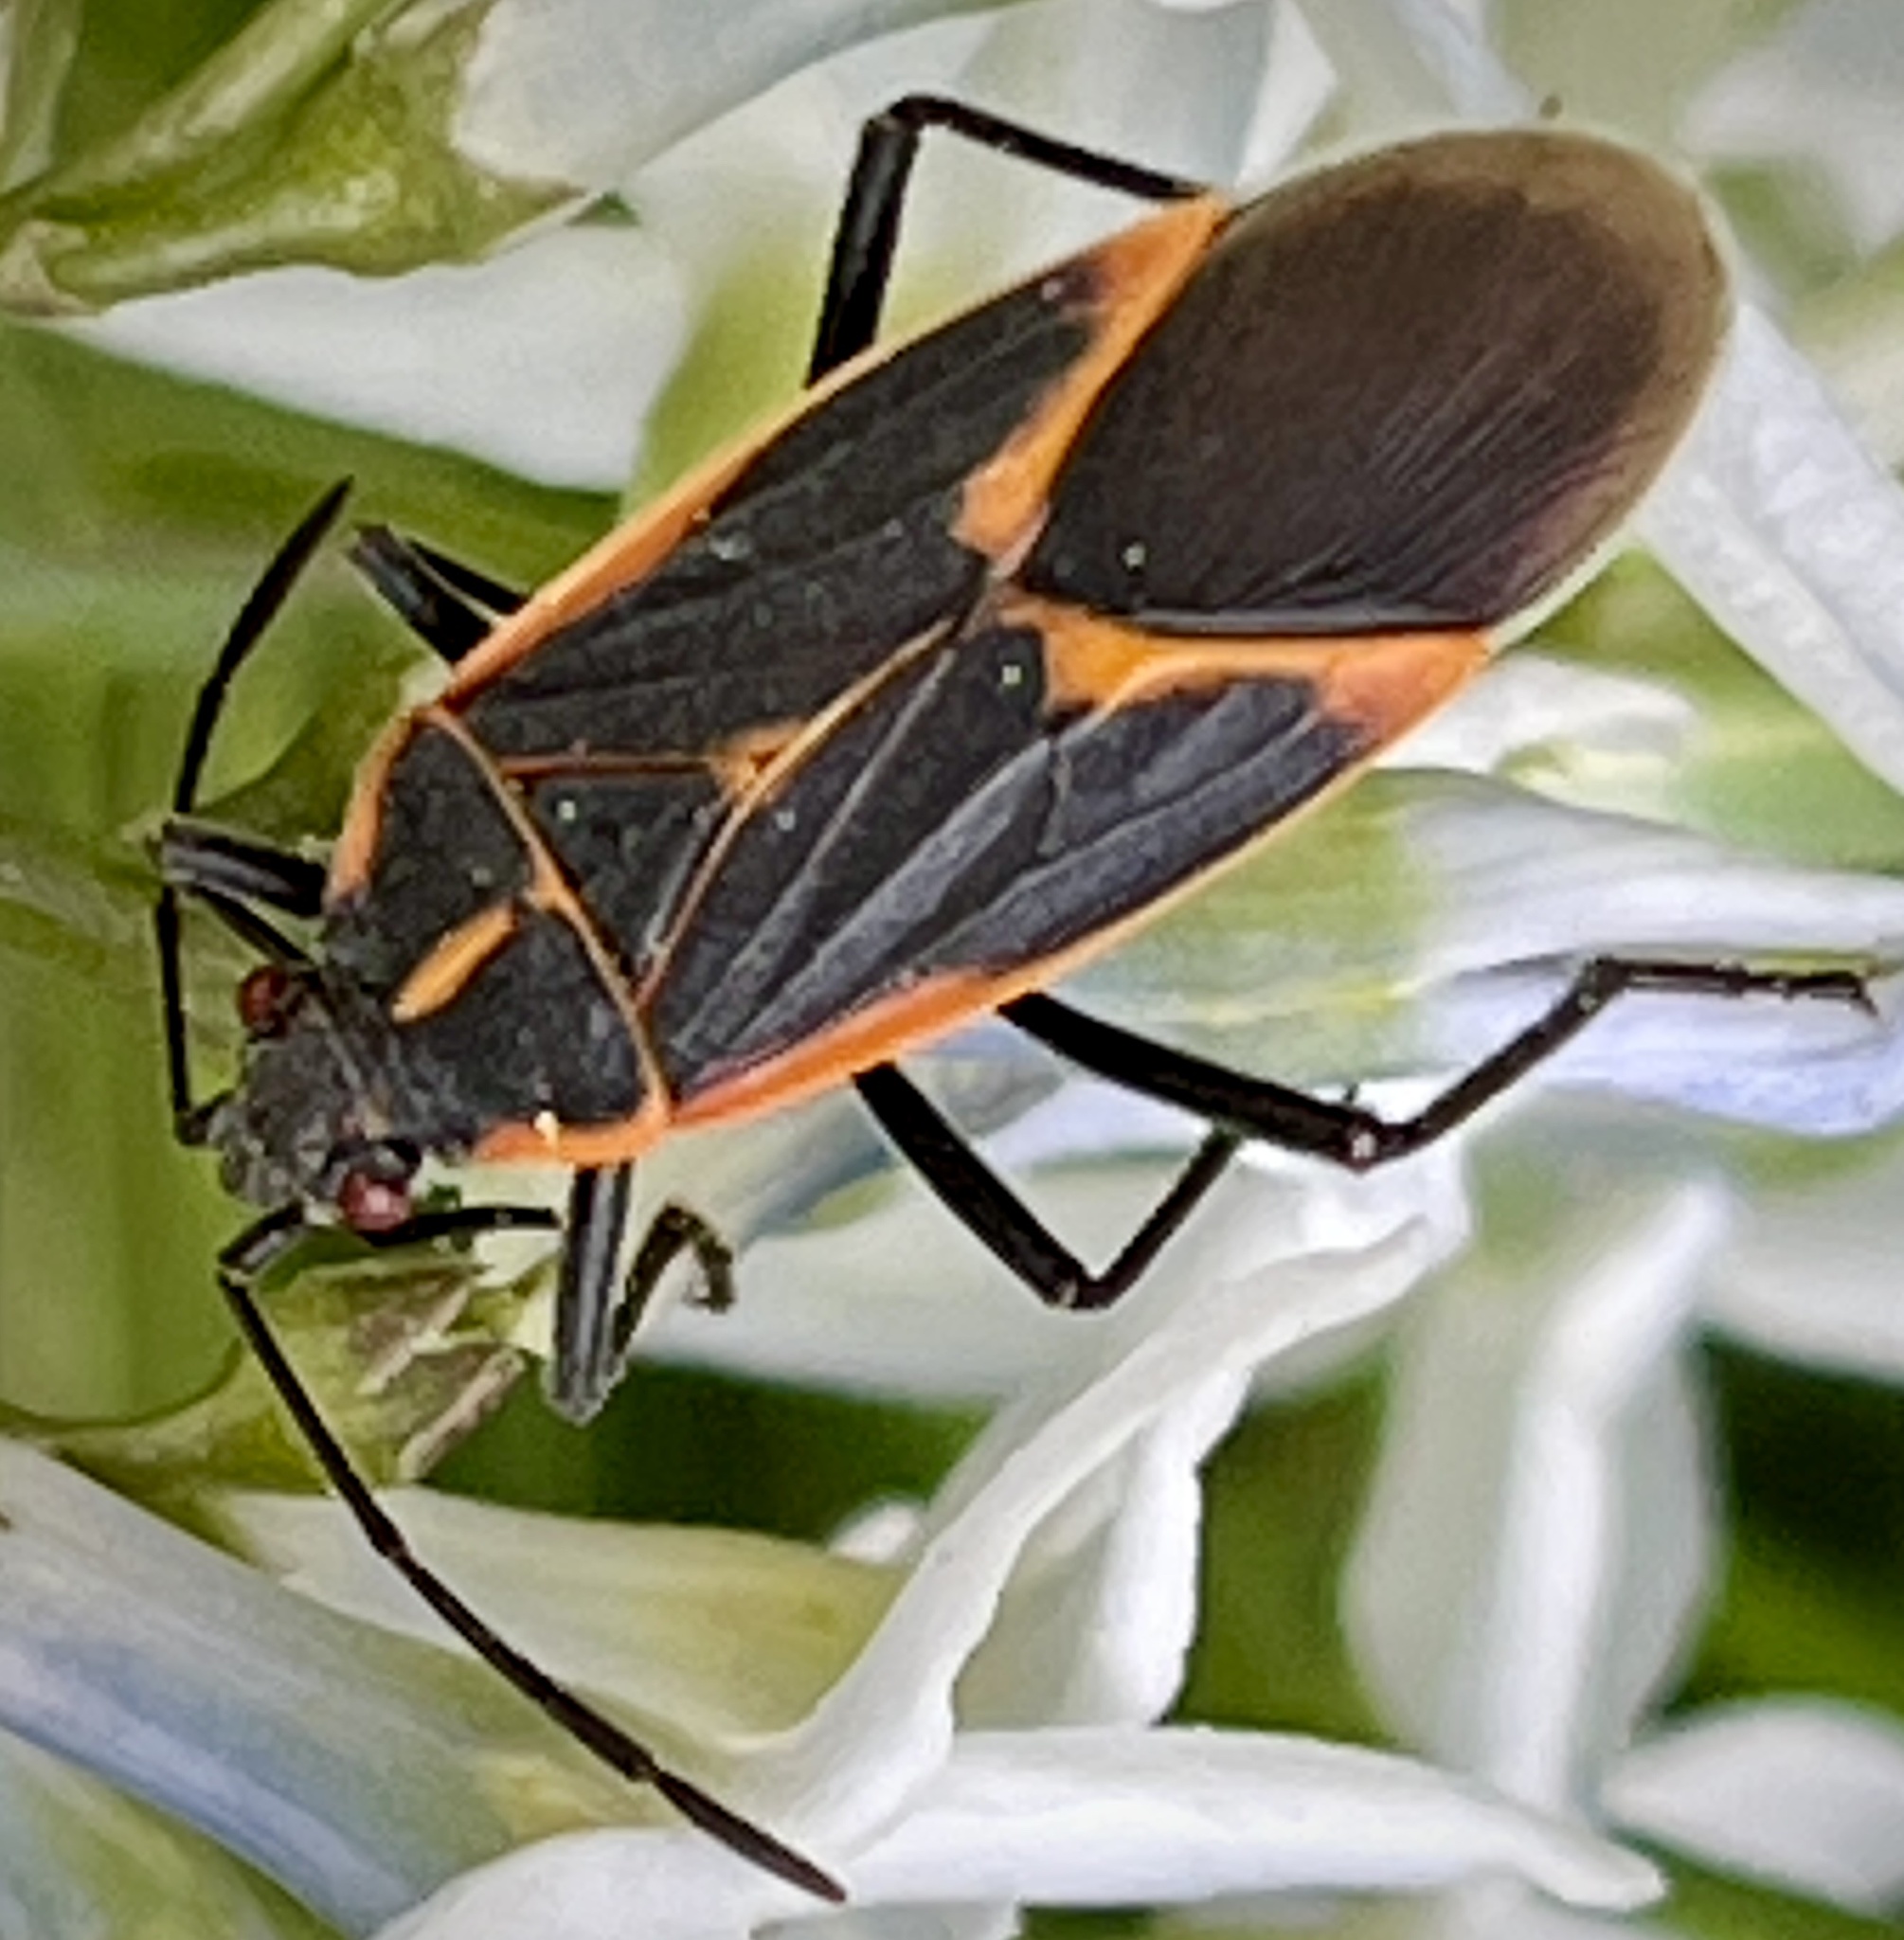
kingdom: Animalia
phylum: Arthropoda
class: Insecta
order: Hemiptera
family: Rhopalidae
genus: Boisea
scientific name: Boisea trivittata
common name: Boxelder bug
